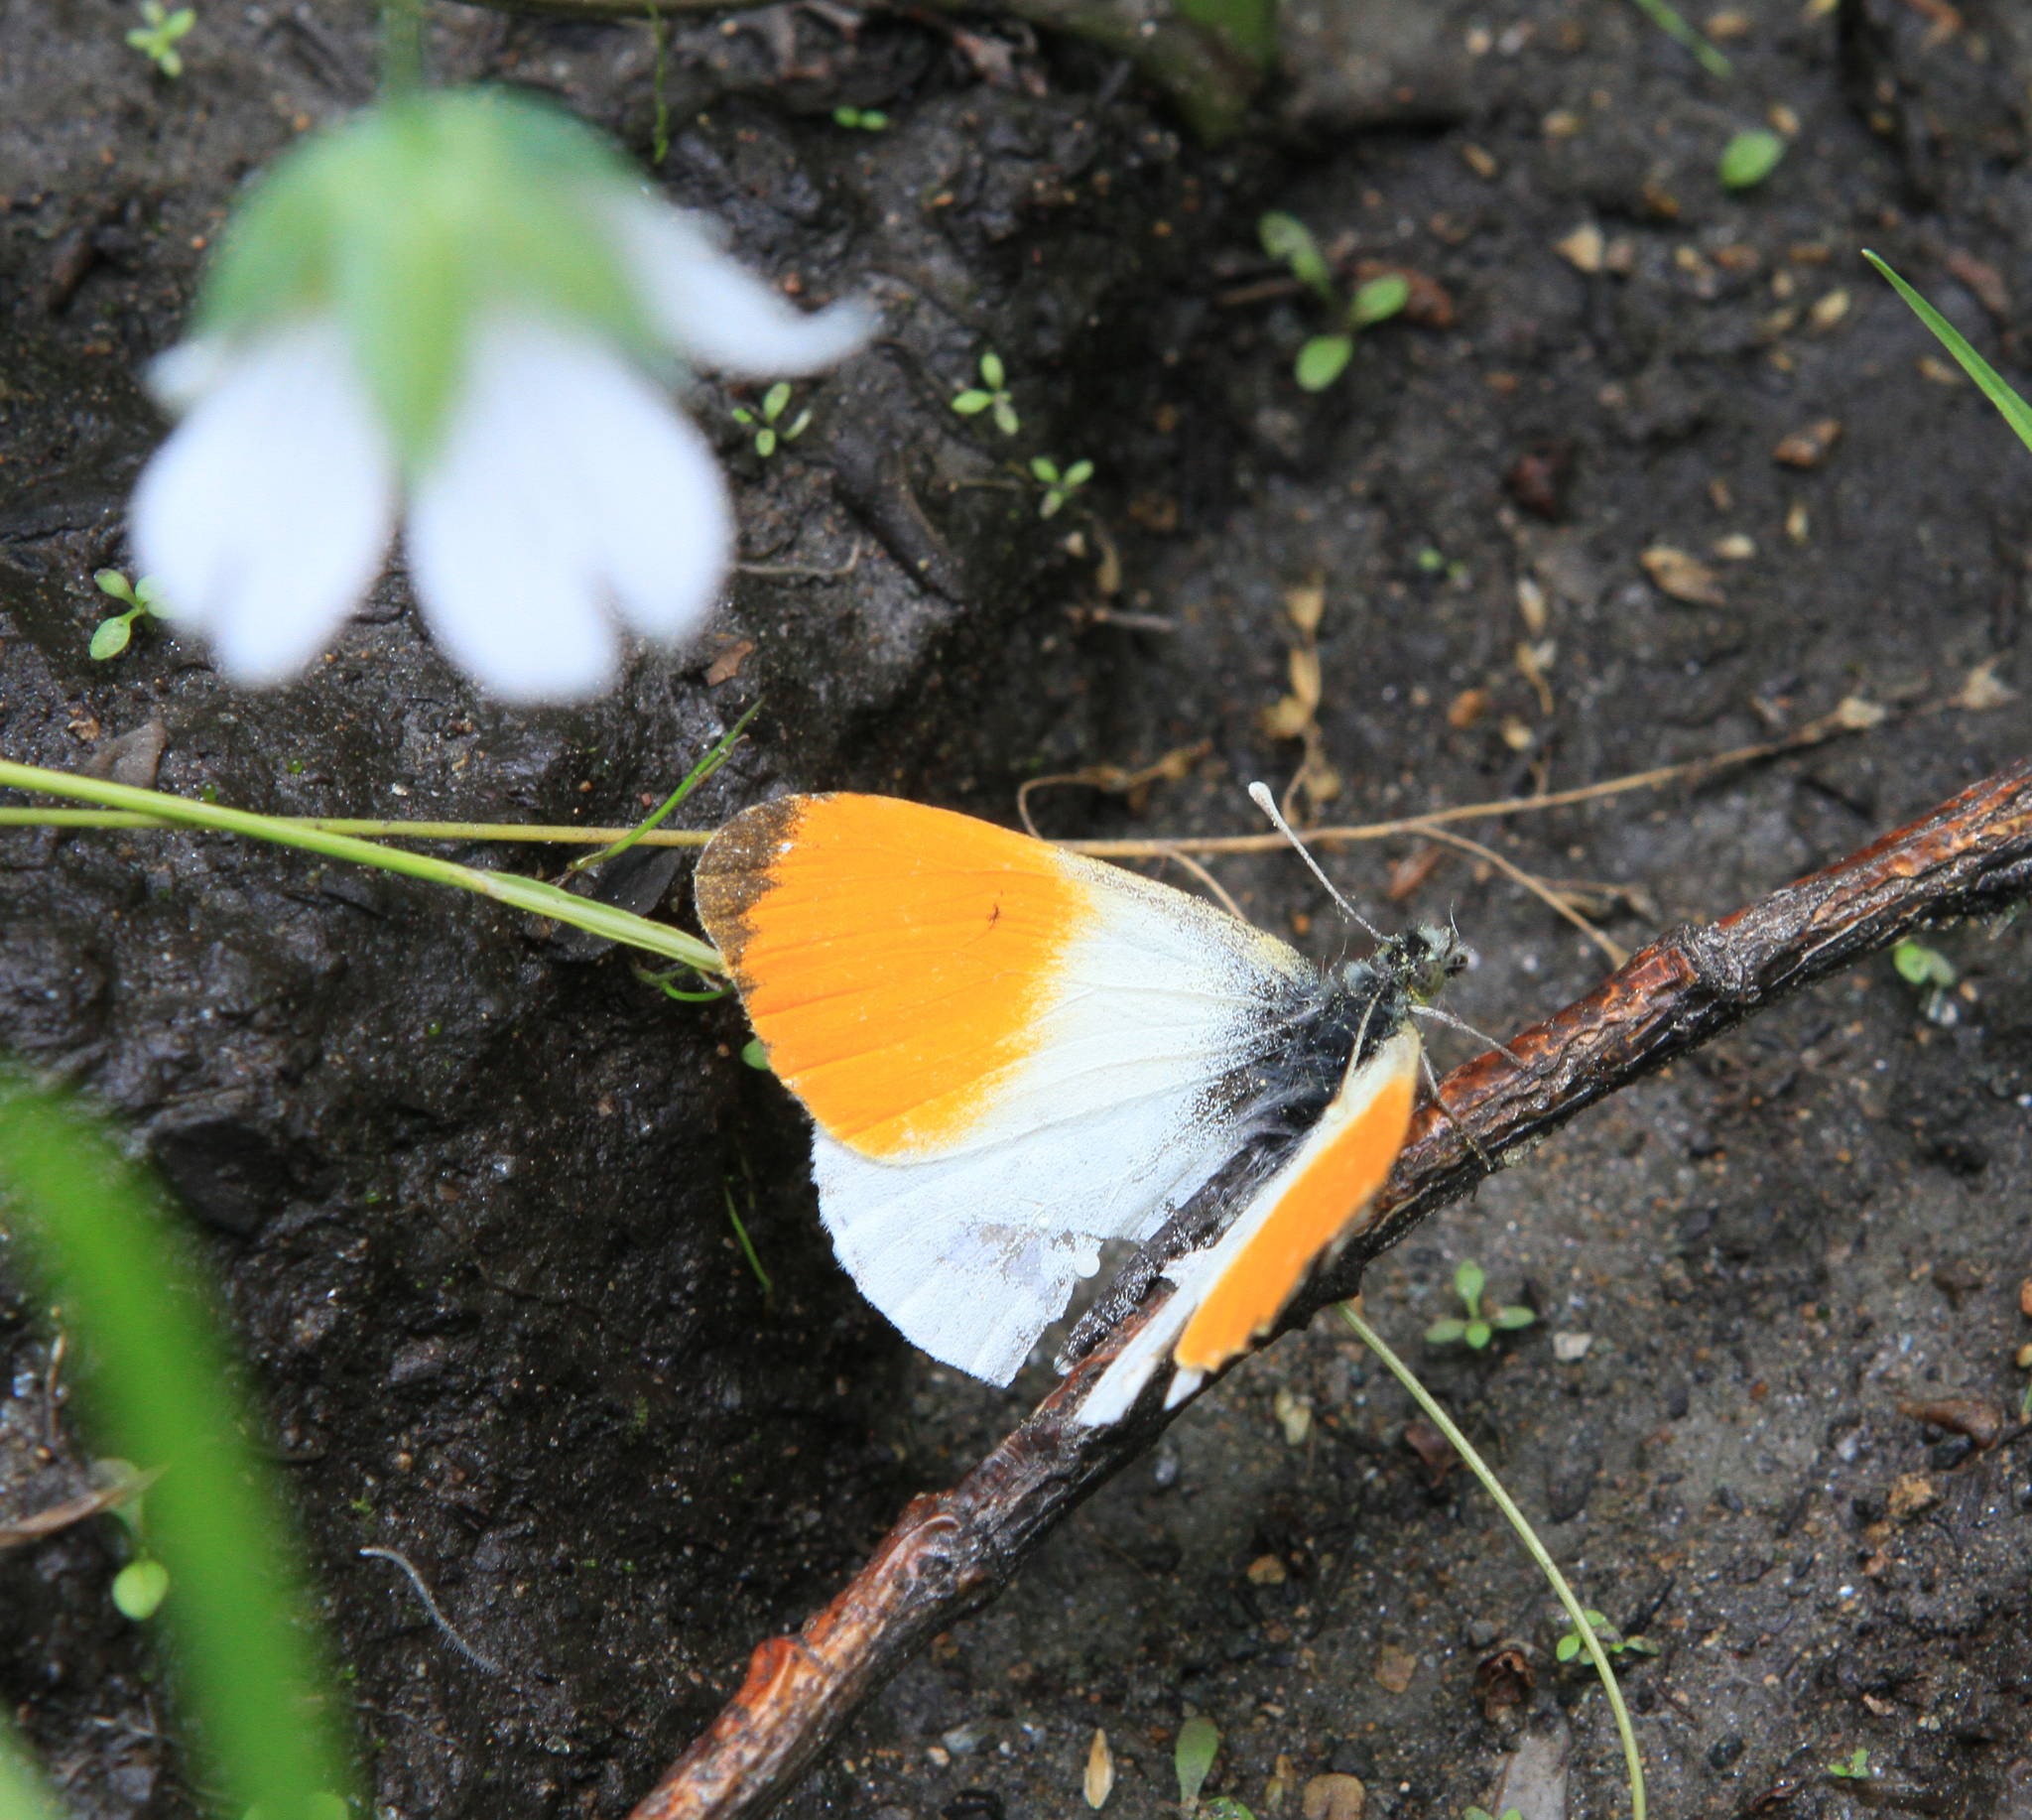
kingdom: Animalia
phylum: Arthropoda
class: Insecta
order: Lepidoptera
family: Pieridae
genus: Anthocharis
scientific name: Anthocharis cardamines
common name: Orange-tip
